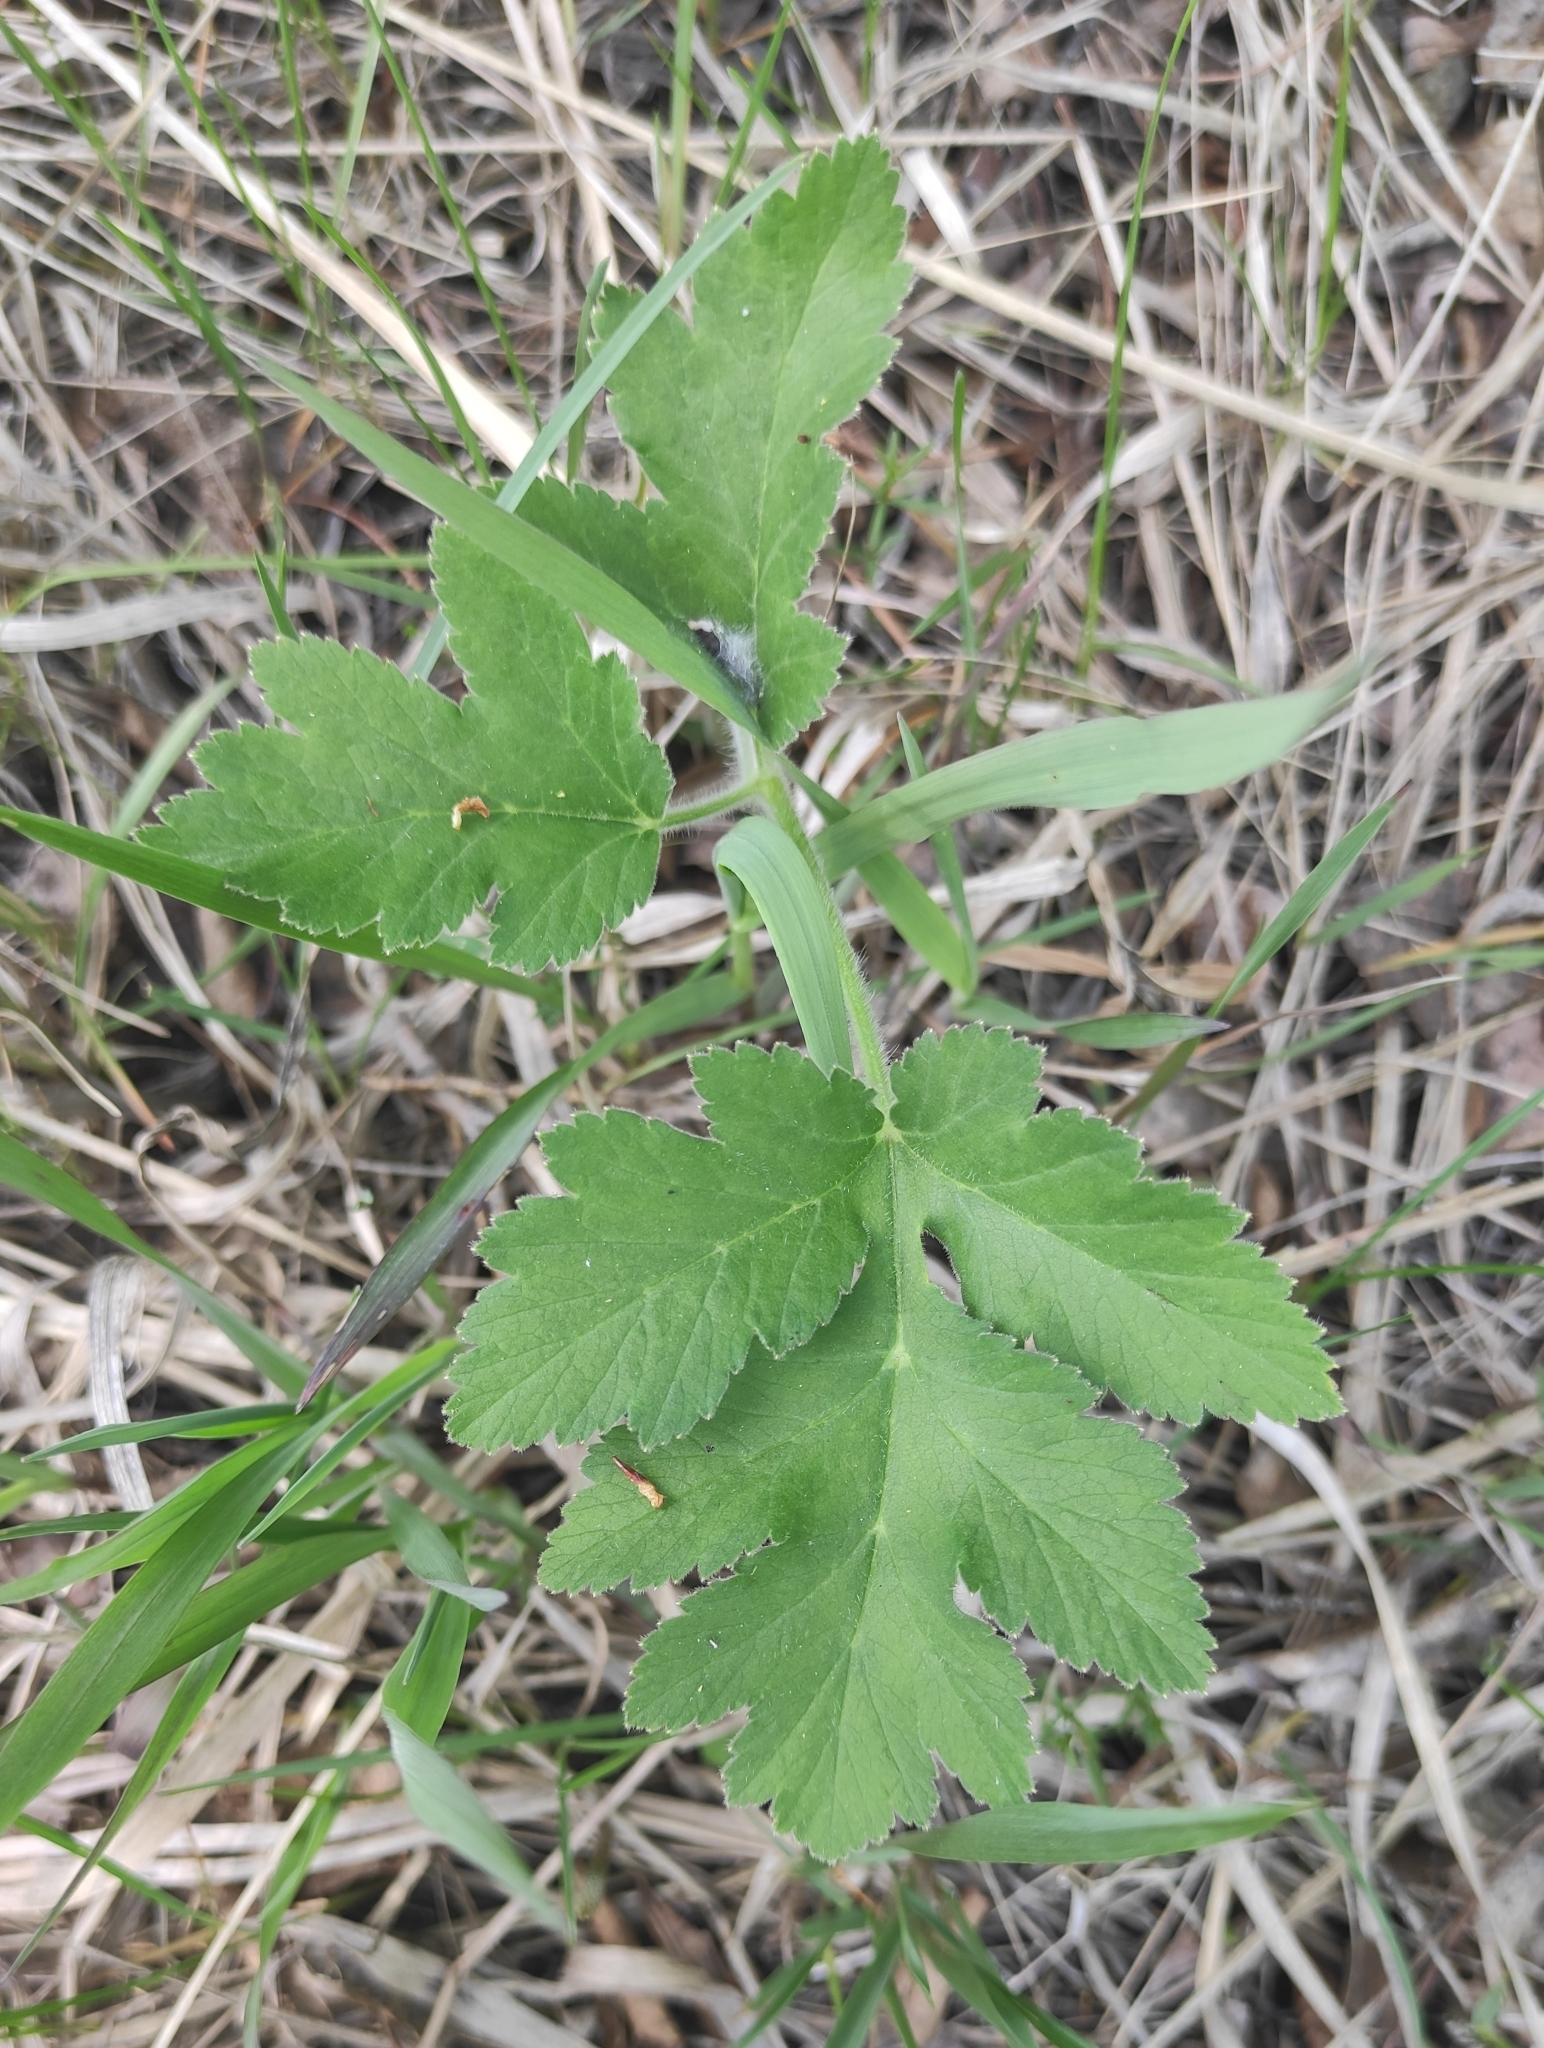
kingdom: Plantae
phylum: Tracheophyta
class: Magnoliopsida
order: Apiales
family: Apiaceae
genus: Heracleum
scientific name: Heracleum dissectum
